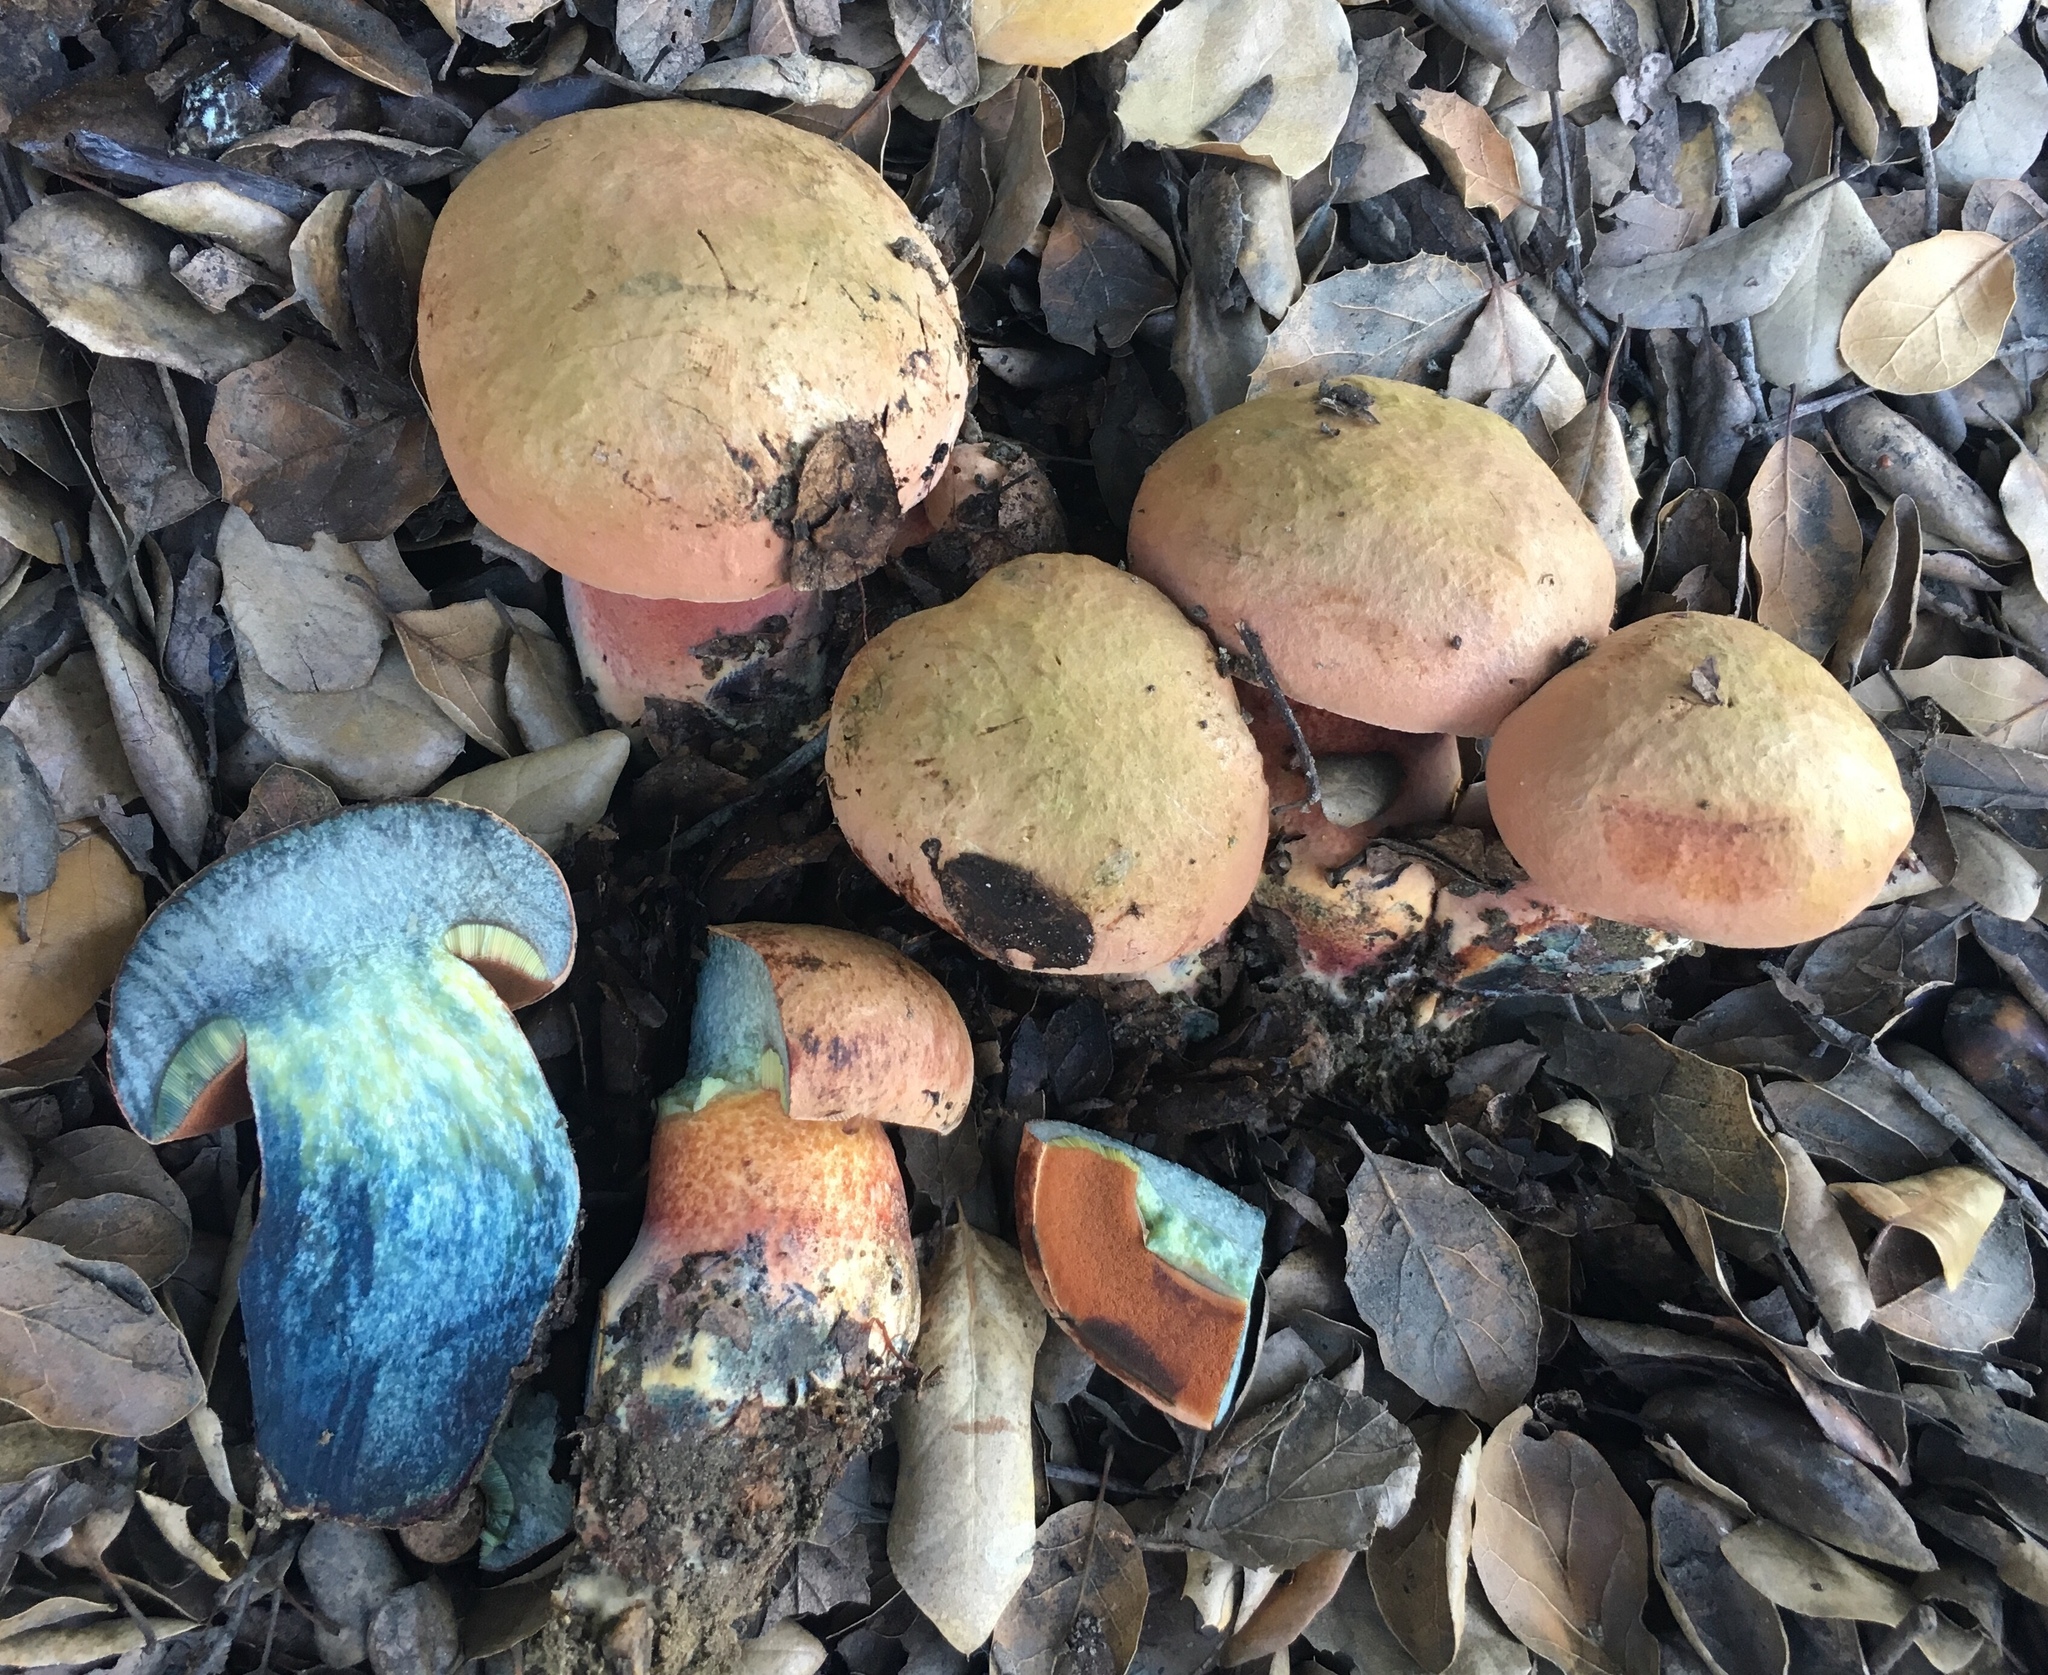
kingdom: Fungi
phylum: Basidiomycota
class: Agaricomycetes
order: Boletales
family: Boletaceae
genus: Suillellus
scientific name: Suillellus amygdalinus
